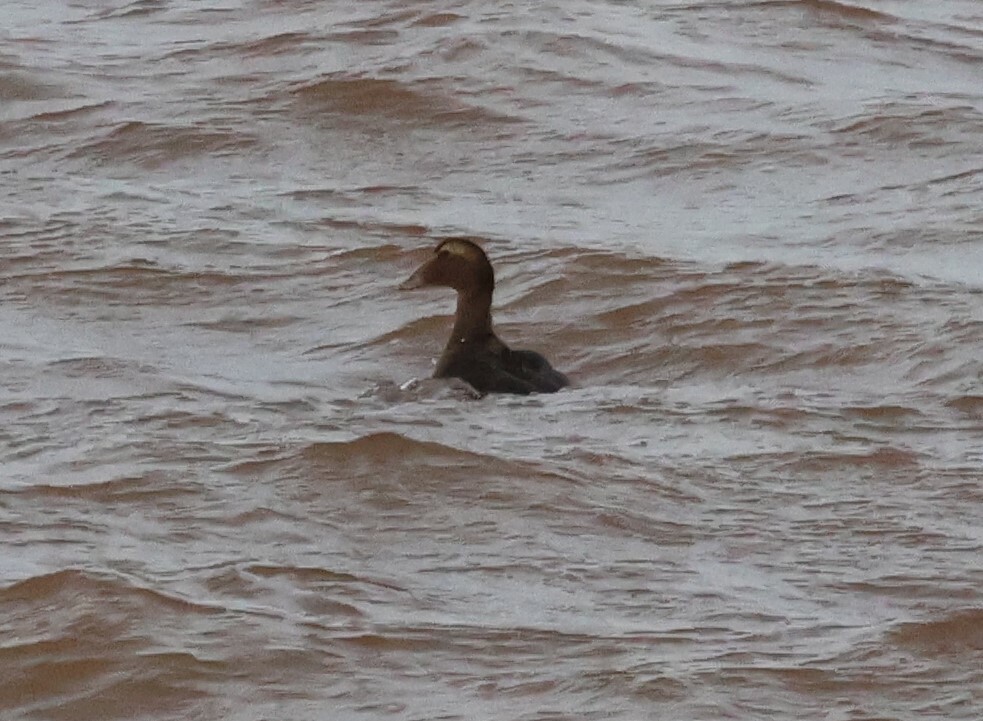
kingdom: Animalia
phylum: Chordata
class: Aves
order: Anseriformes
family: Anatidae
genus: Somateria
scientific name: Somateria mollissima
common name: Common eider
